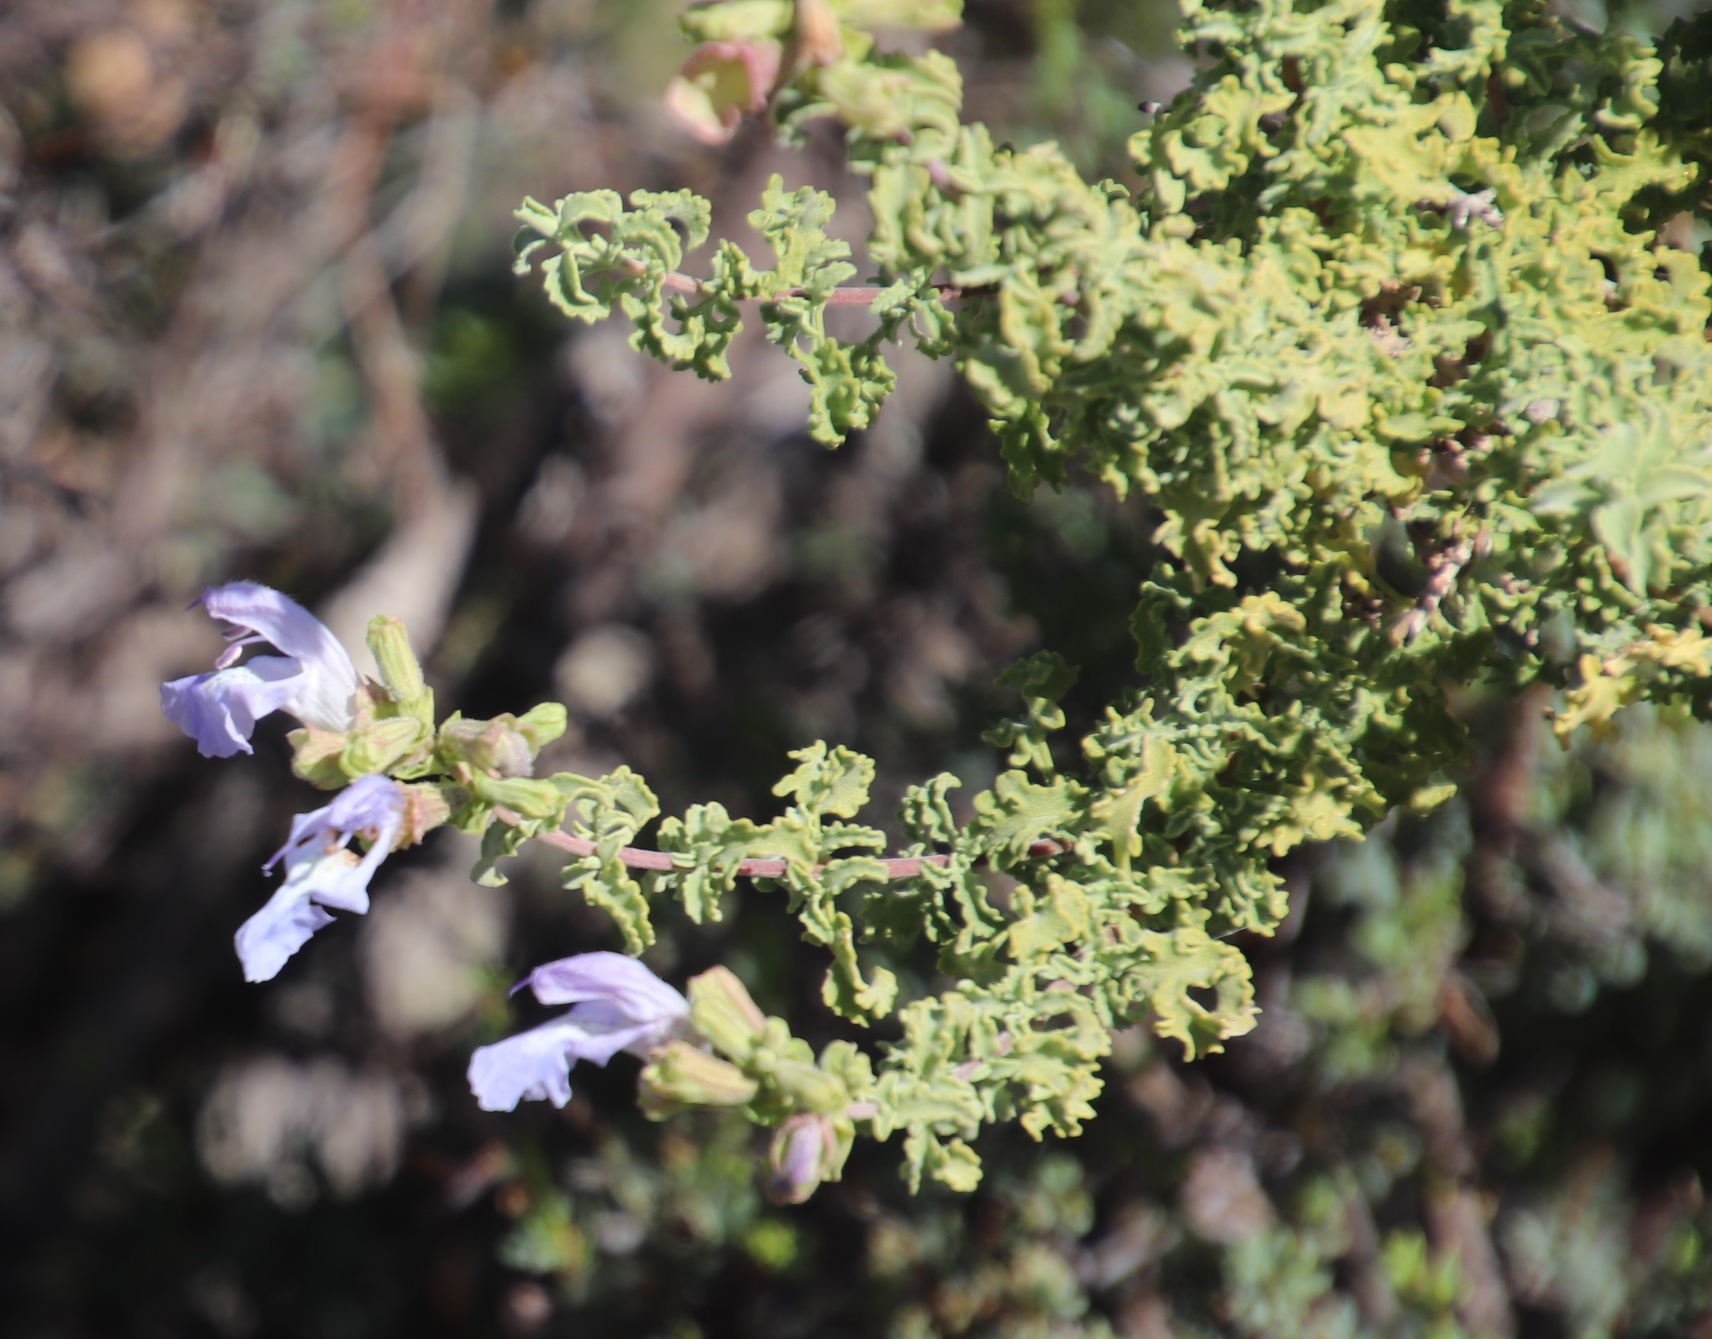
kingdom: Plantae
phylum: Tracheophyta
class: Magnoliopsida
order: Lamiales
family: Lamiaceae
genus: Salvia
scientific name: Salvia dentata
